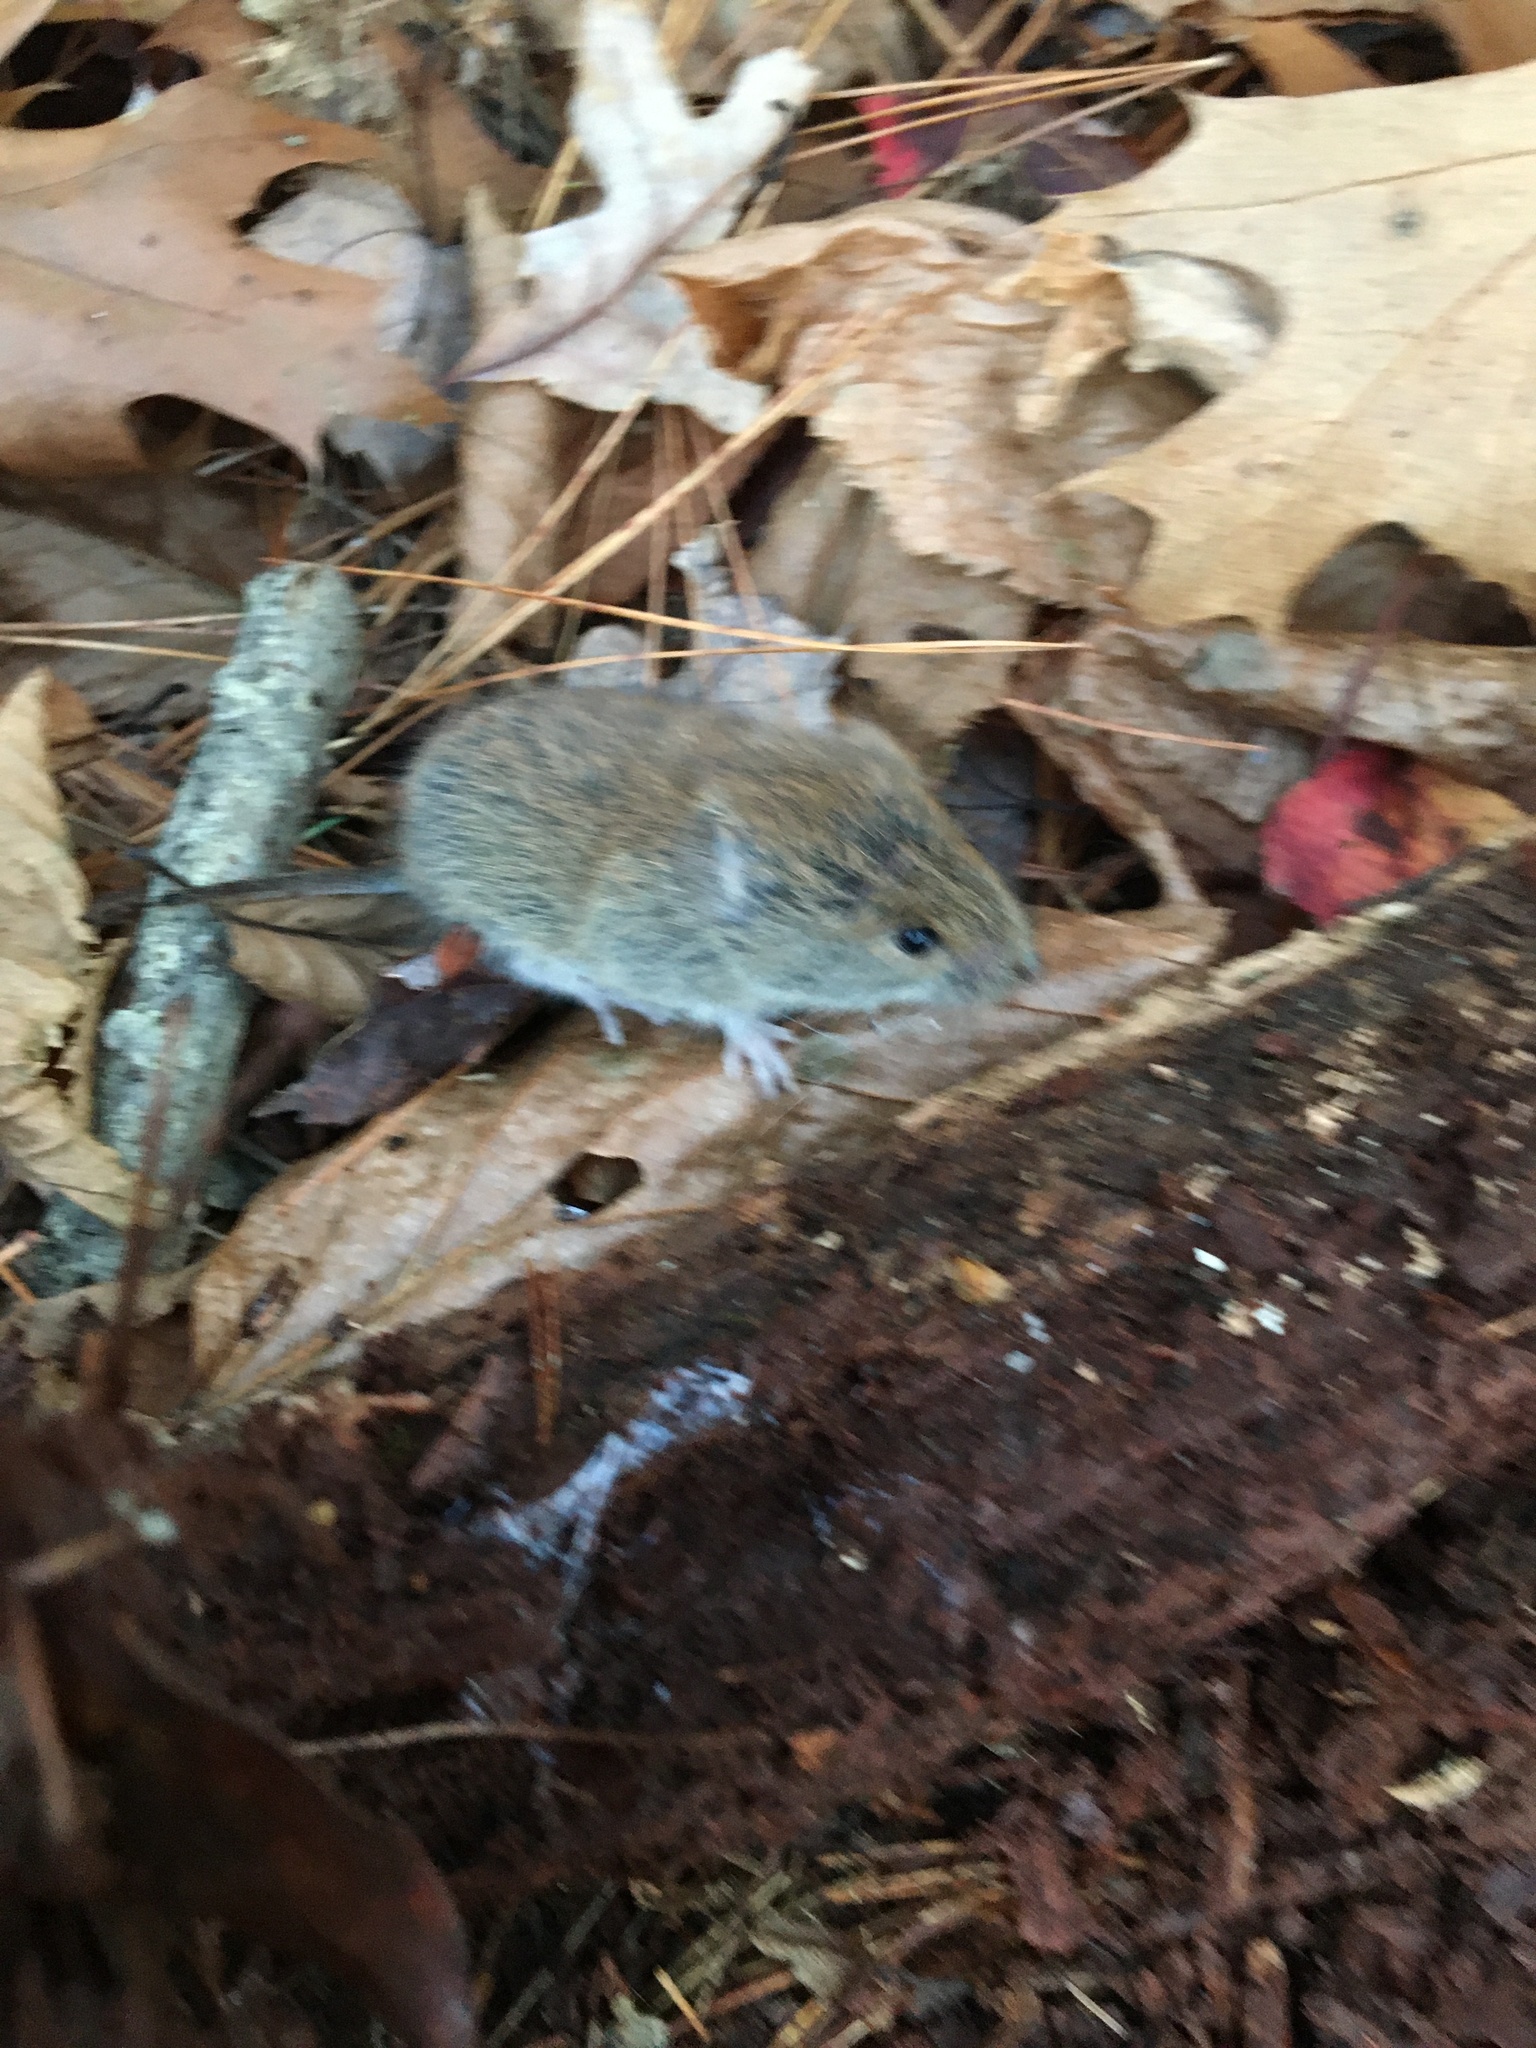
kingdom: Animalia
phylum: Chordata
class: Mammalia
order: Rodentia
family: Cricetidae
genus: Myodes
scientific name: Myodes gapperi
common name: Southern red-backed vole
